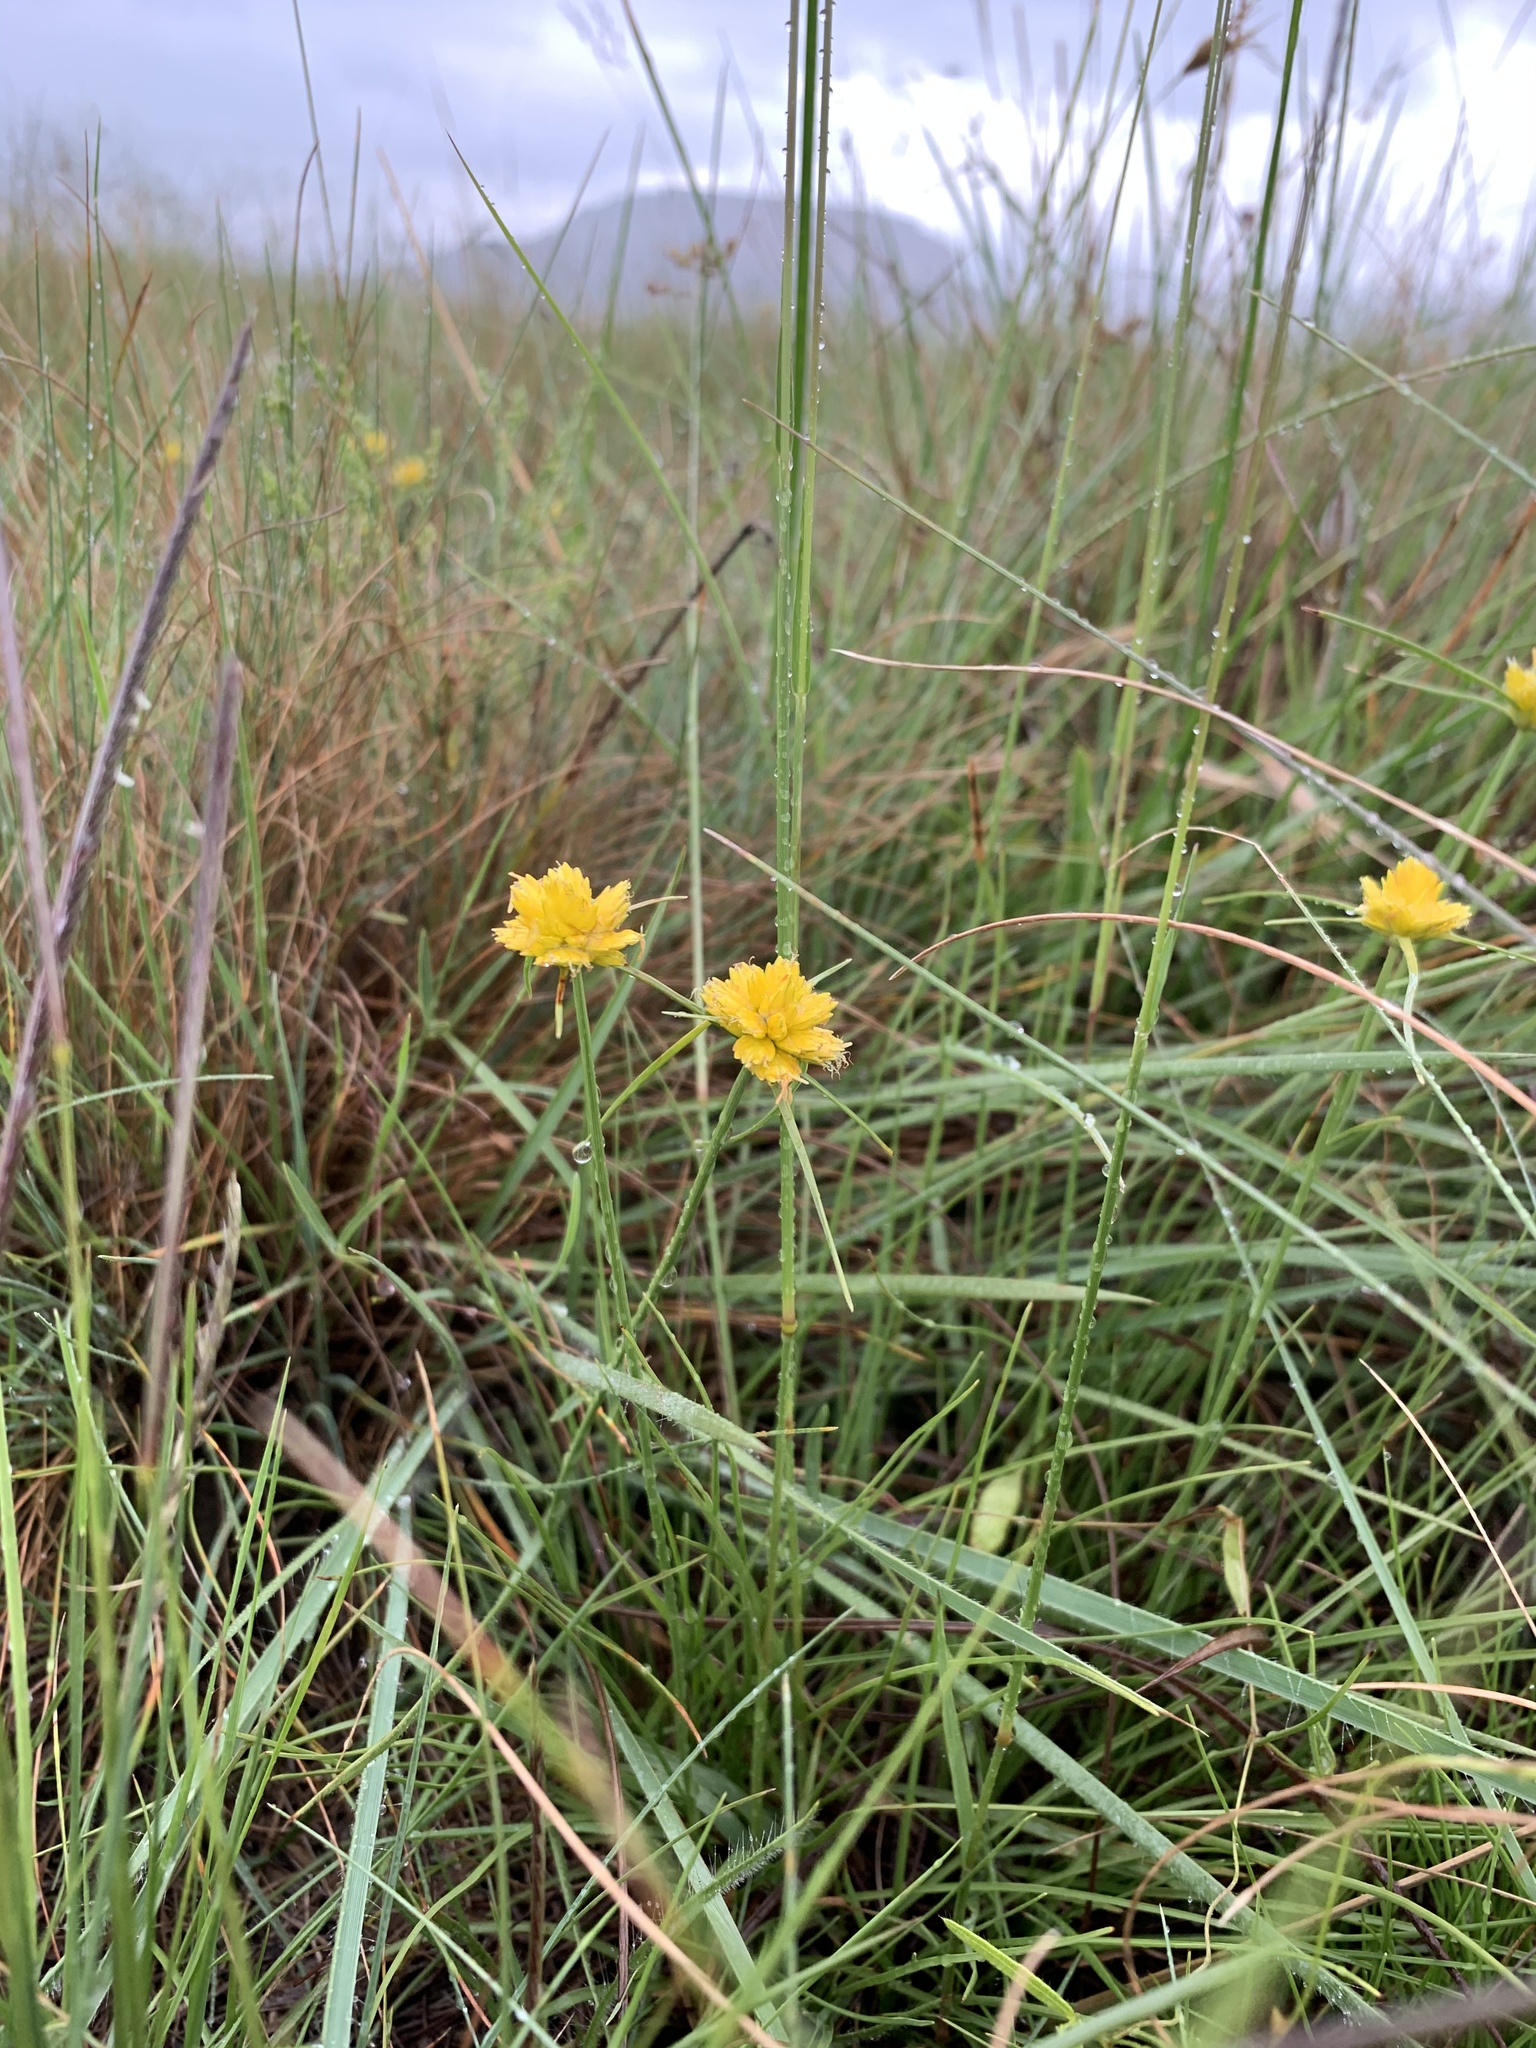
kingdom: Plantae
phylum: Tracheophyta
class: Liliopsida
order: Poales
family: Cyperaceae
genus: Cyperus
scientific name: Cyperus sphaerocephalus
